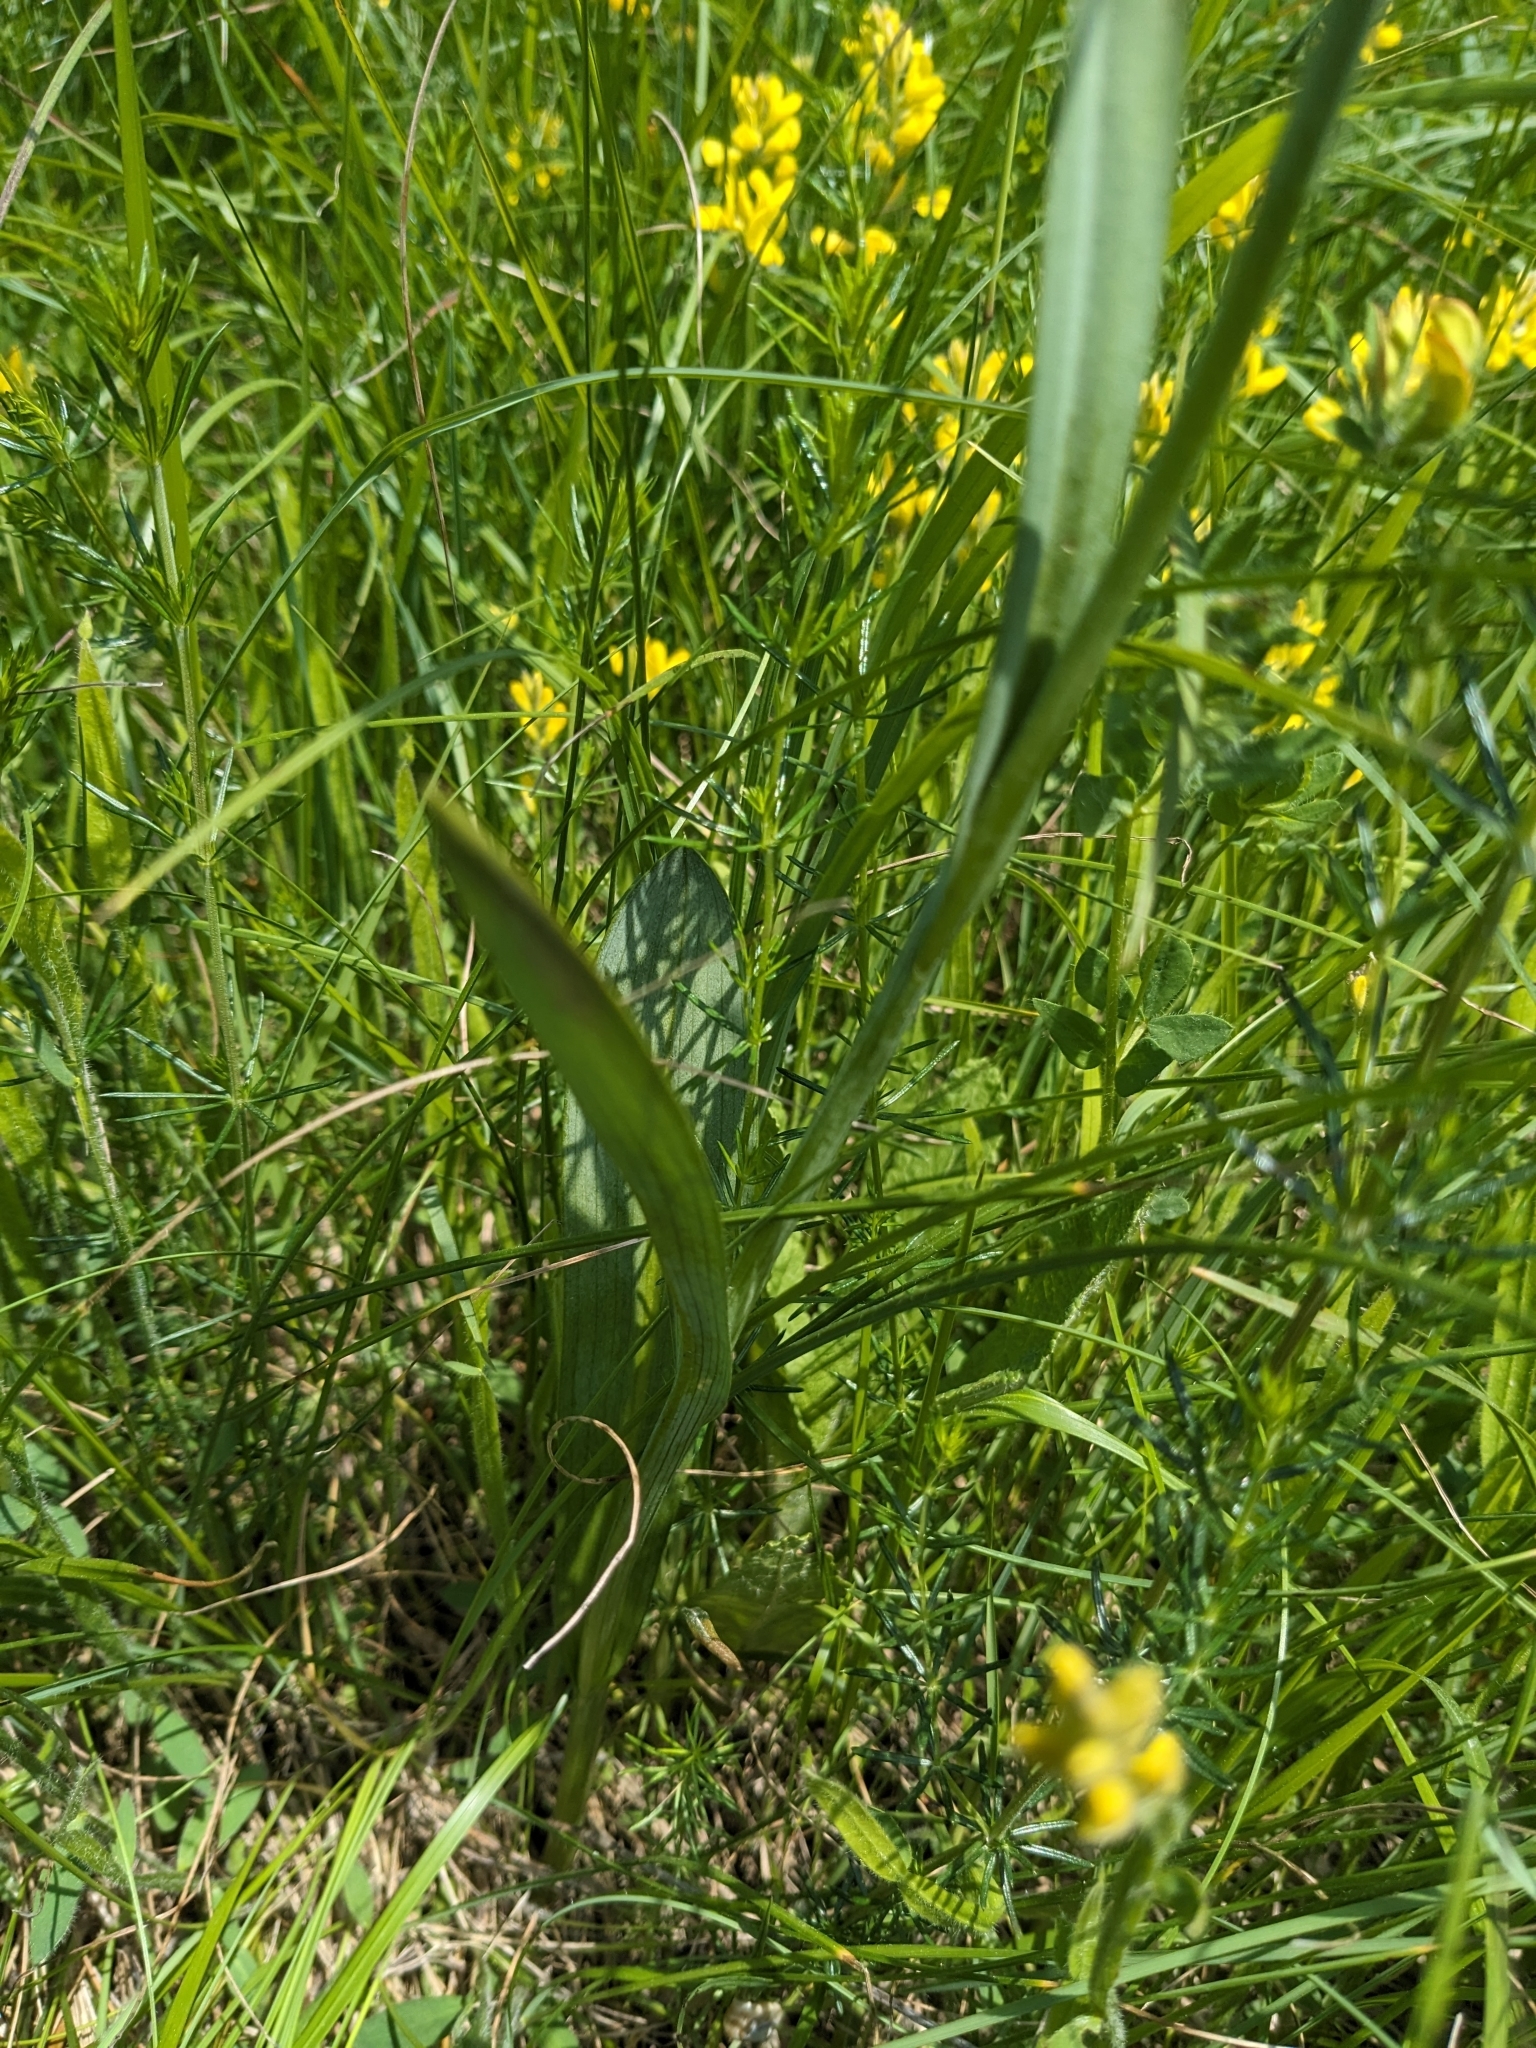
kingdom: Plantae
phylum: Tracheophyta
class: Liliopsida
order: Asparagales
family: Orchidaceae
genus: Traunsteinera
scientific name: Traunsteinera globosa
